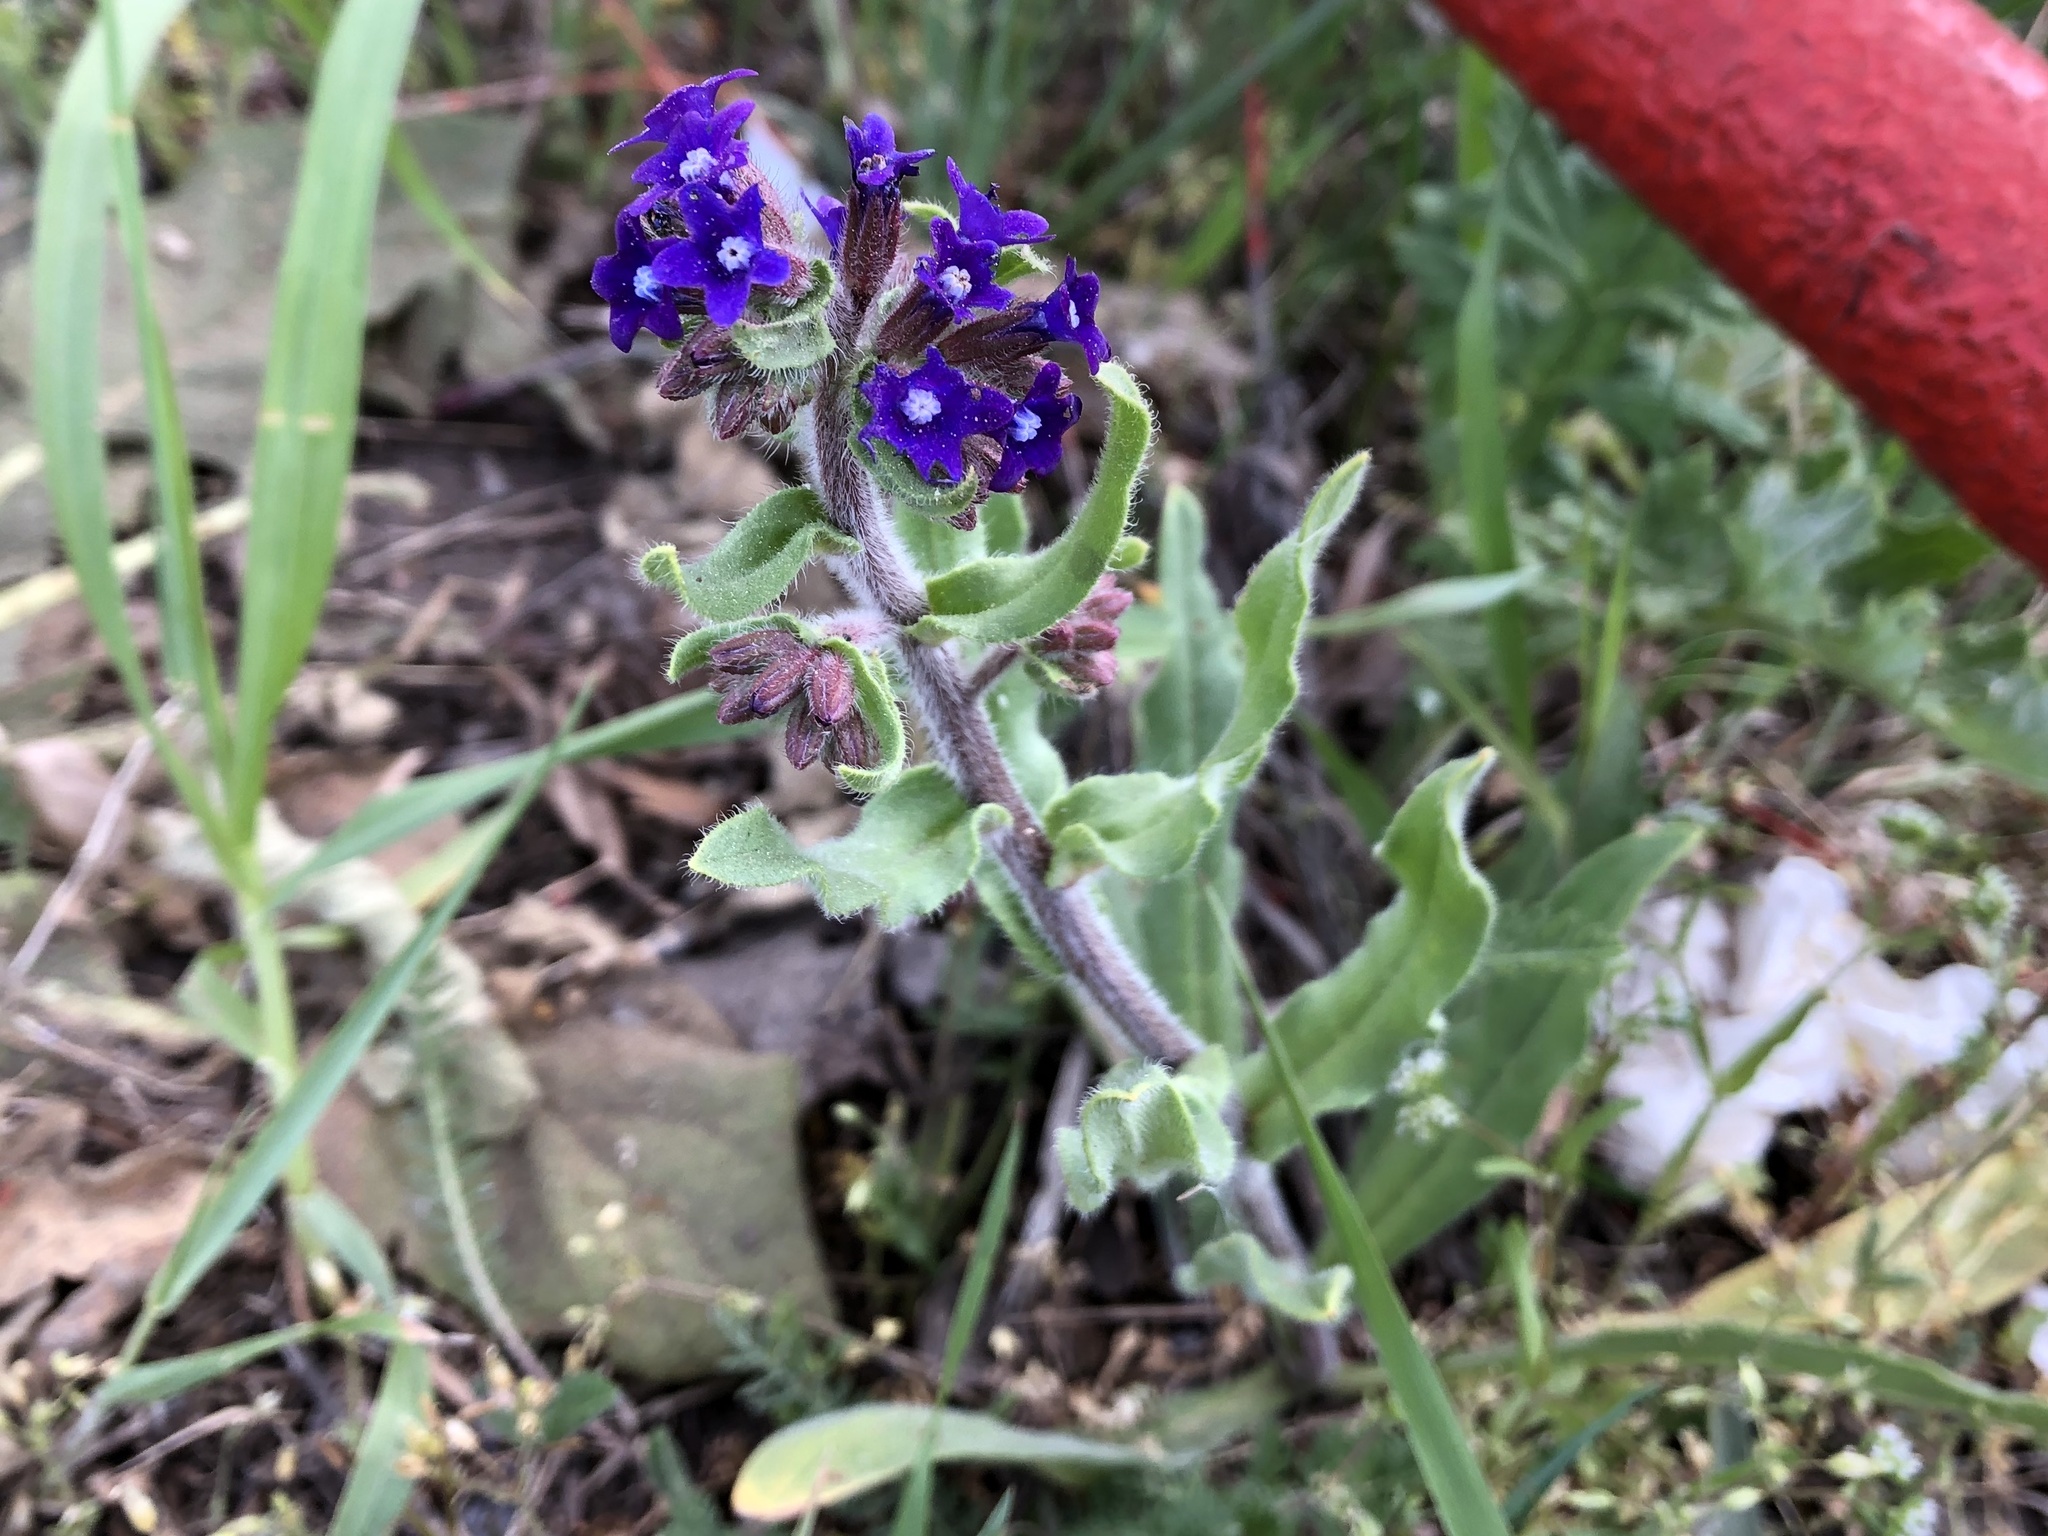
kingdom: Plantae
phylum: Tracheophyta
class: Magnoliopsida
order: Boraginales
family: Boraginaceae
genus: Anchusa
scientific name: Anchusa officinalis
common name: Alkanet
